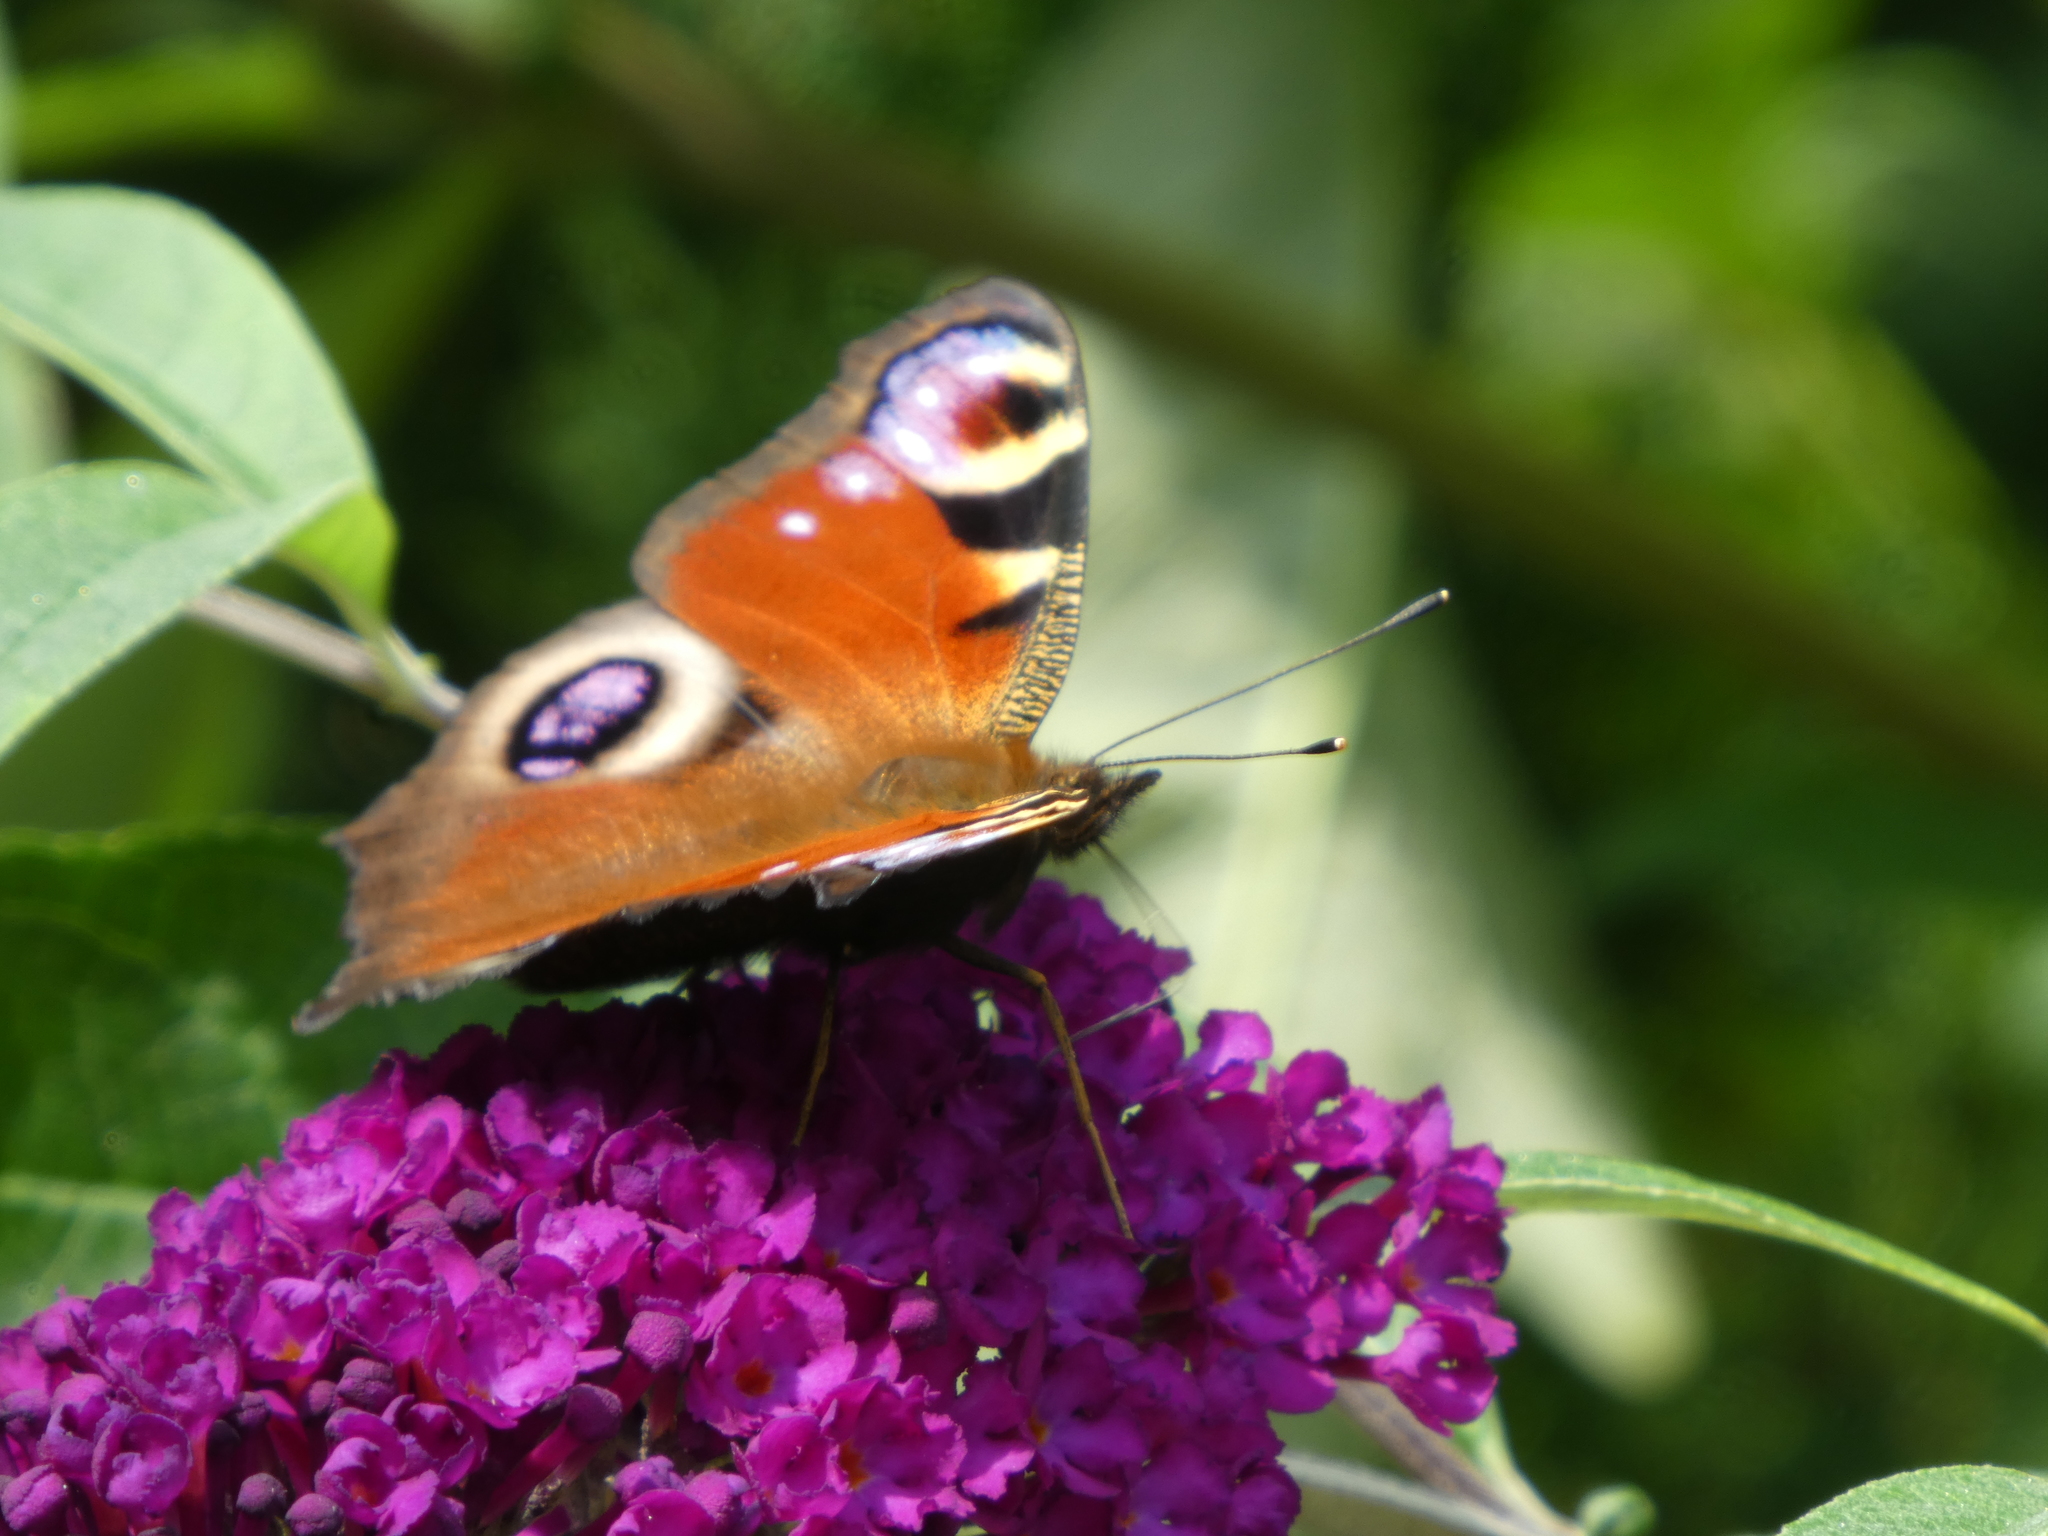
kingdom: Animalia
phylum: Arthropoda
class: Insecta
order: Lepidoptera
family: Nymphalidae
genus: Aglais
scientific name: Aglais io
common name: Peacock
